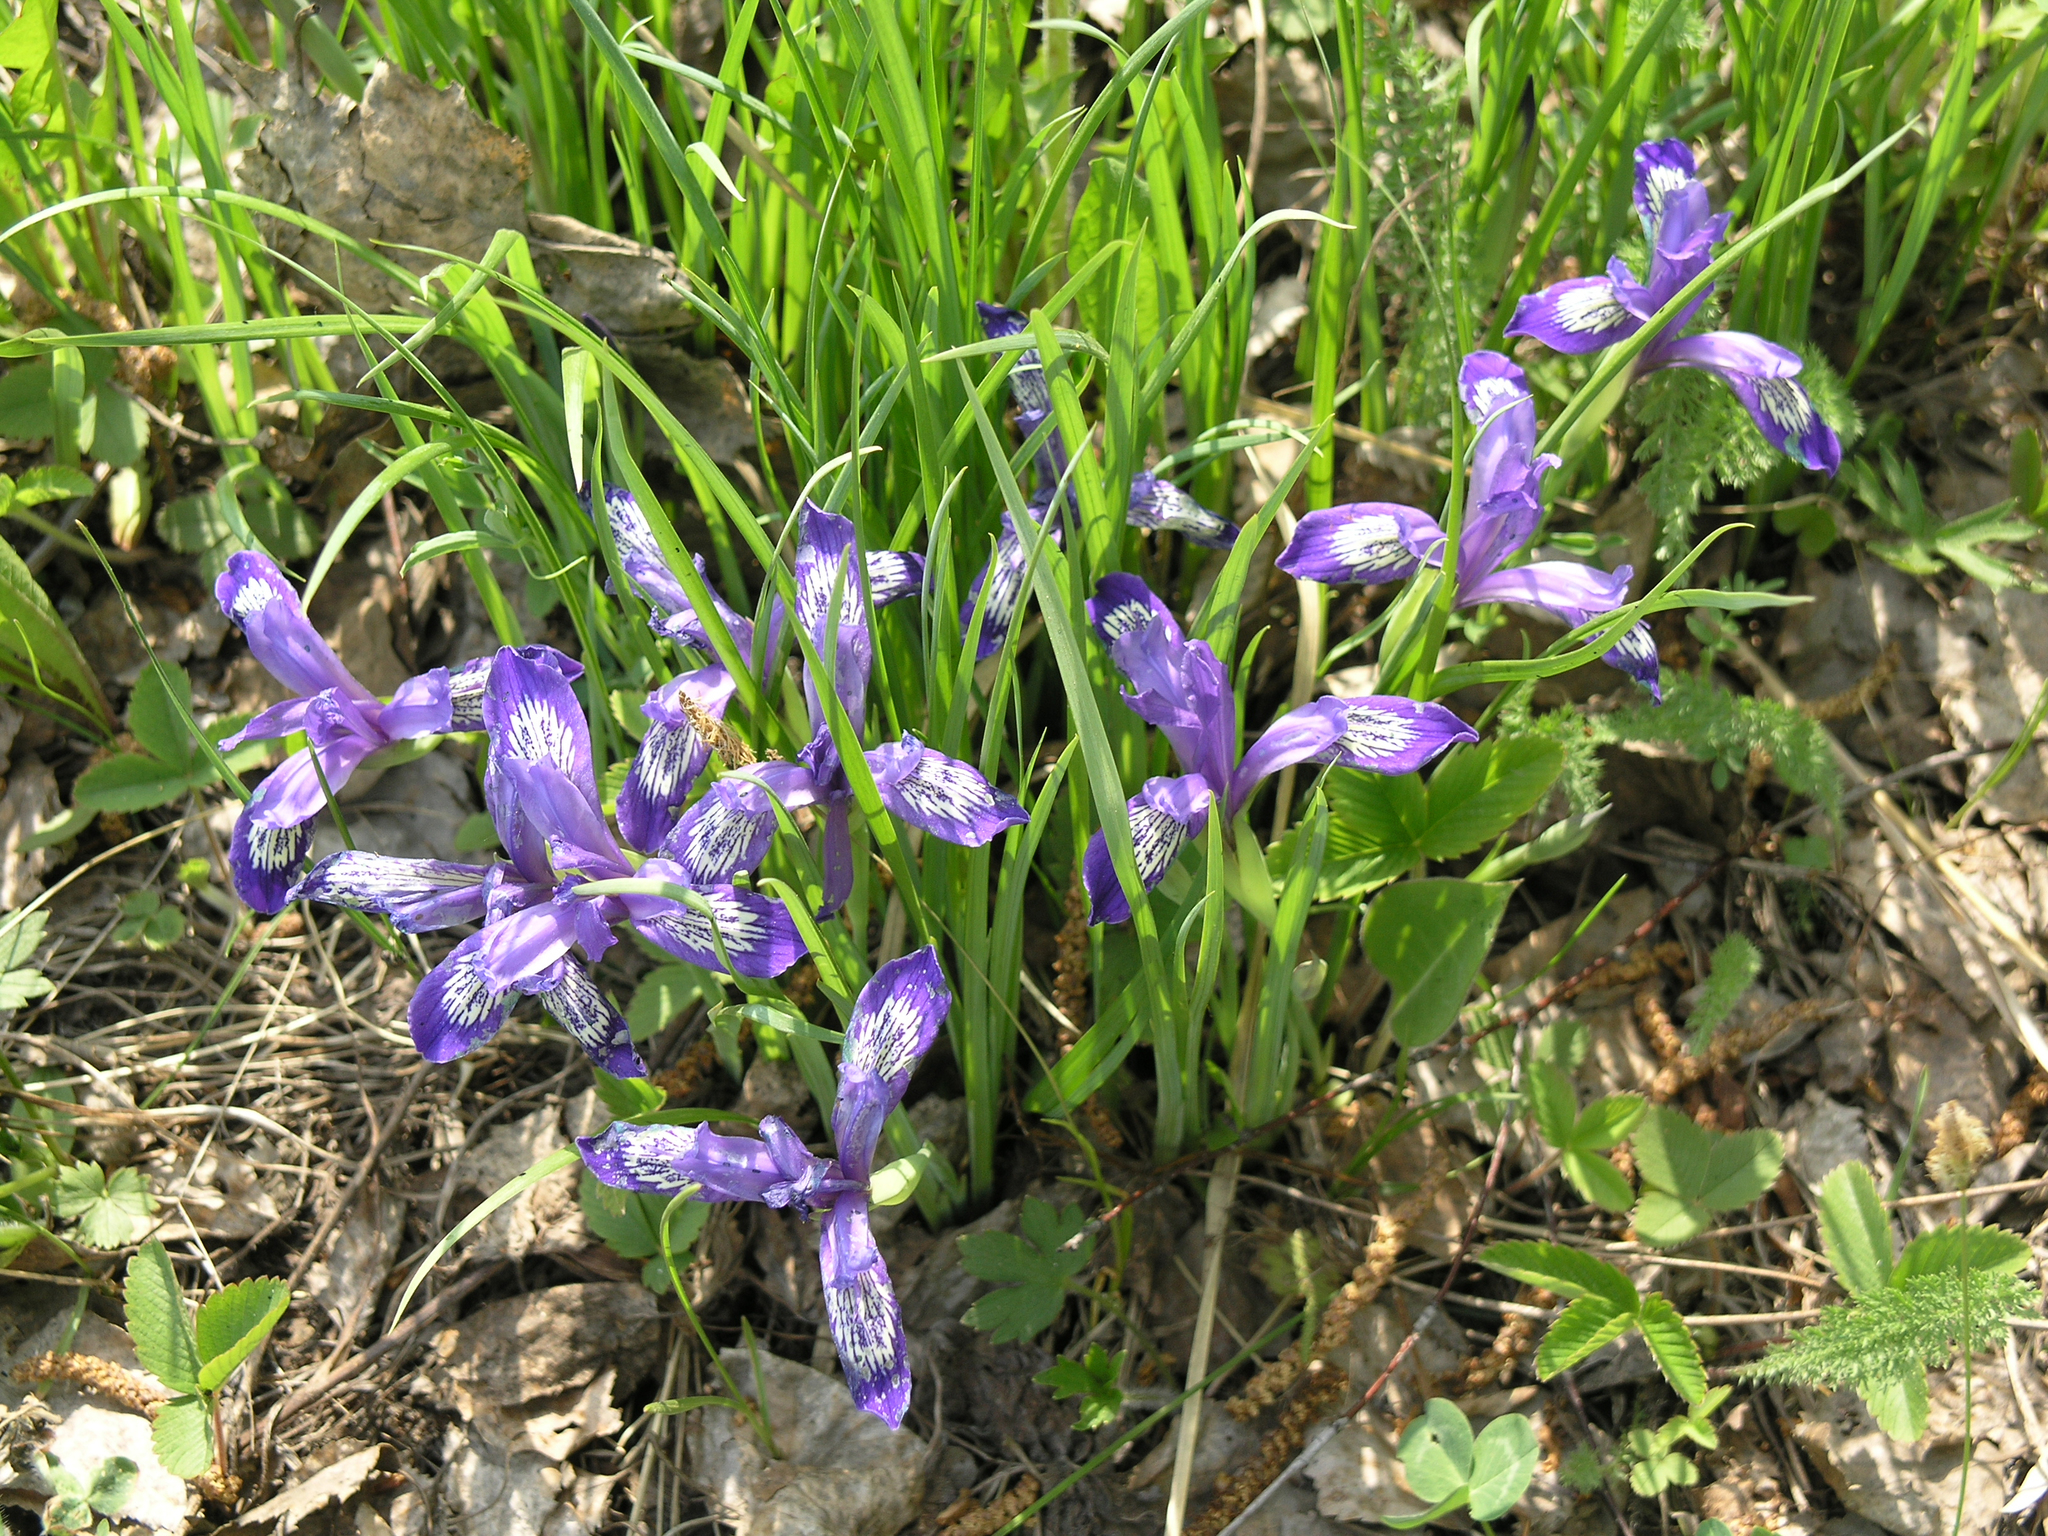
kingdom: Plantae
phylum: Tracheophyta
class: Liliopsida
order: Asparagales
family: Iridaceae
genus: Iris
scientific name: Iris ruthenica
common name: Purple-bract iris
